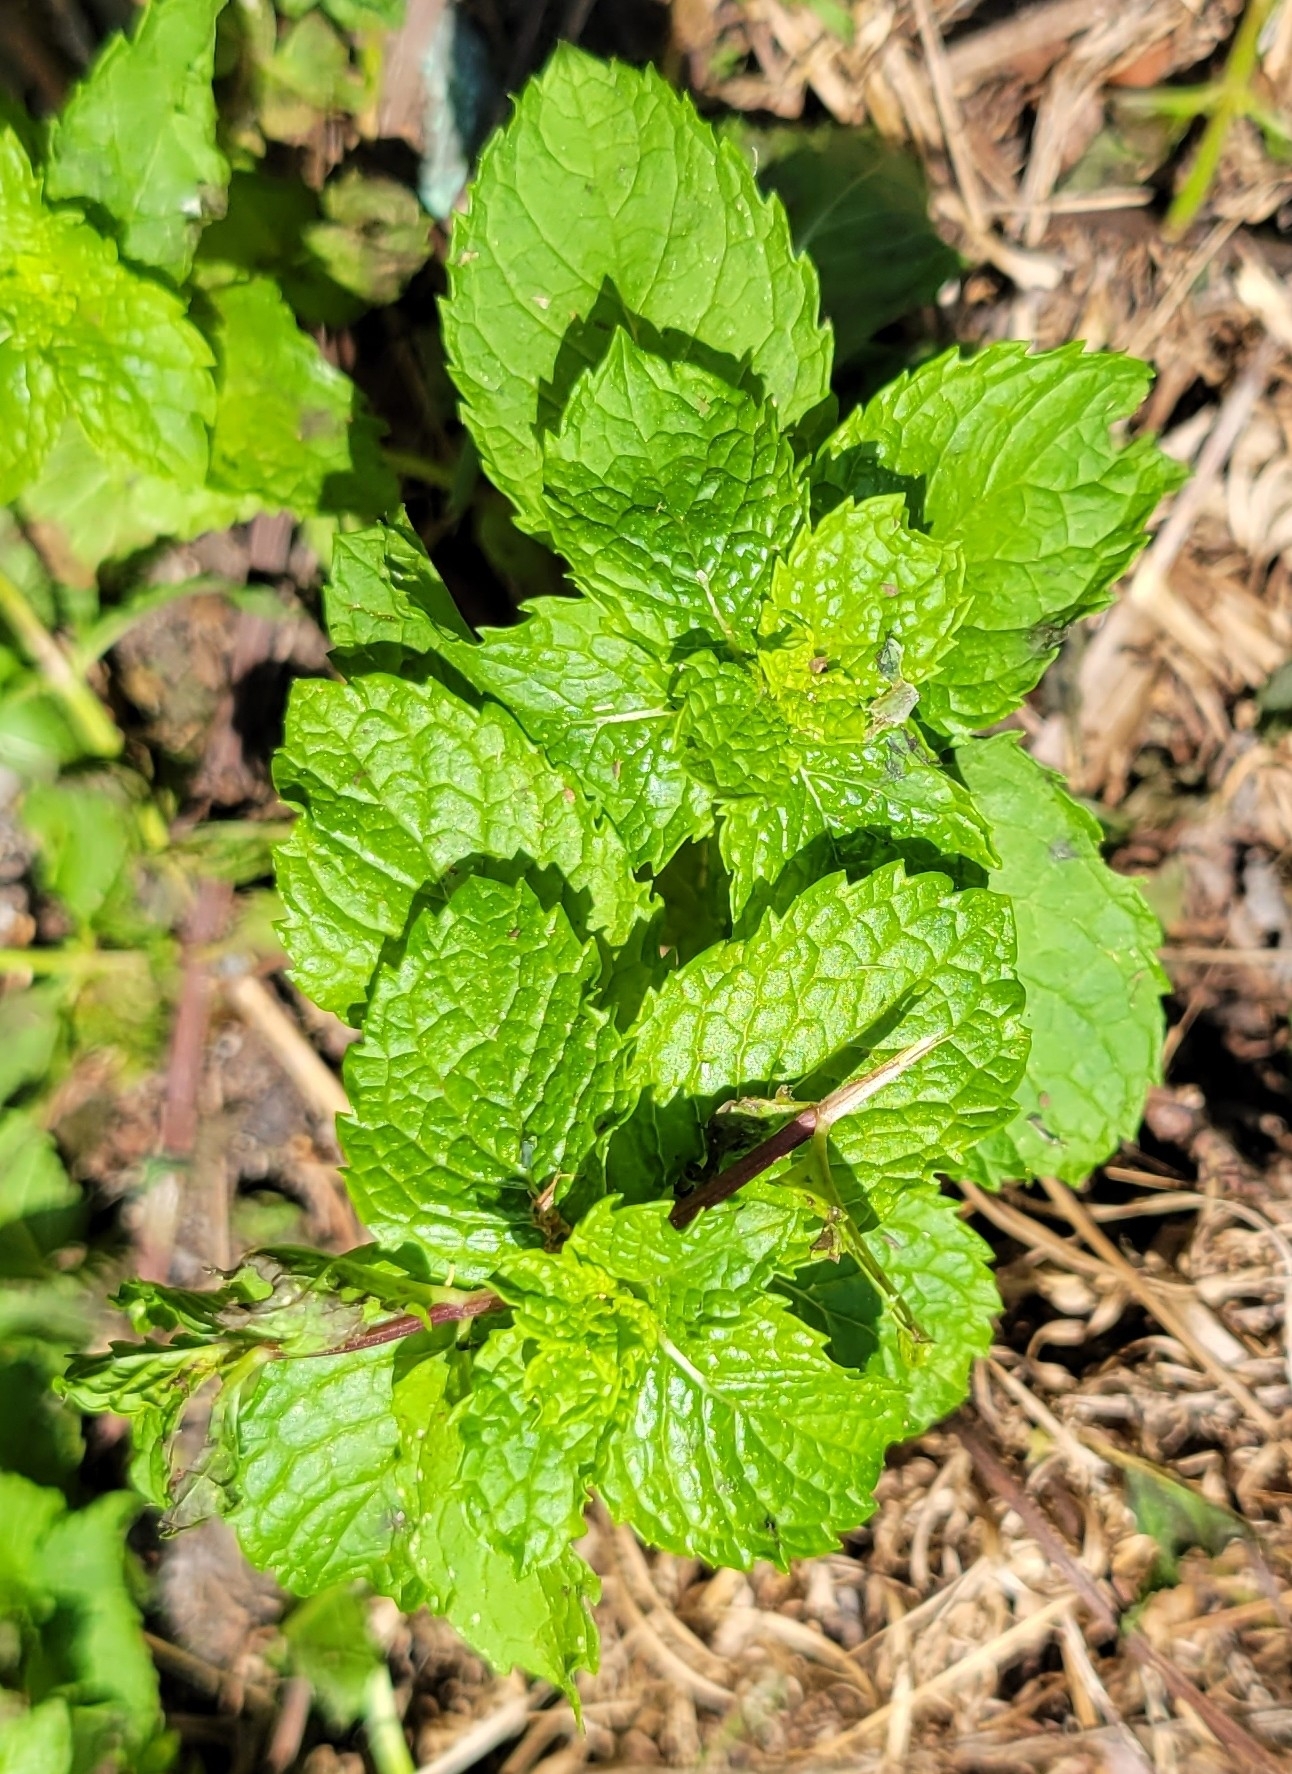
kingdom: Plantae
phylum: Tracheophyta
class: Magnoliopsida
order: Lamiales
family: Lamiaceae
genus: Mentha
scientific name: Mentha spicata
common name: Spearmint
